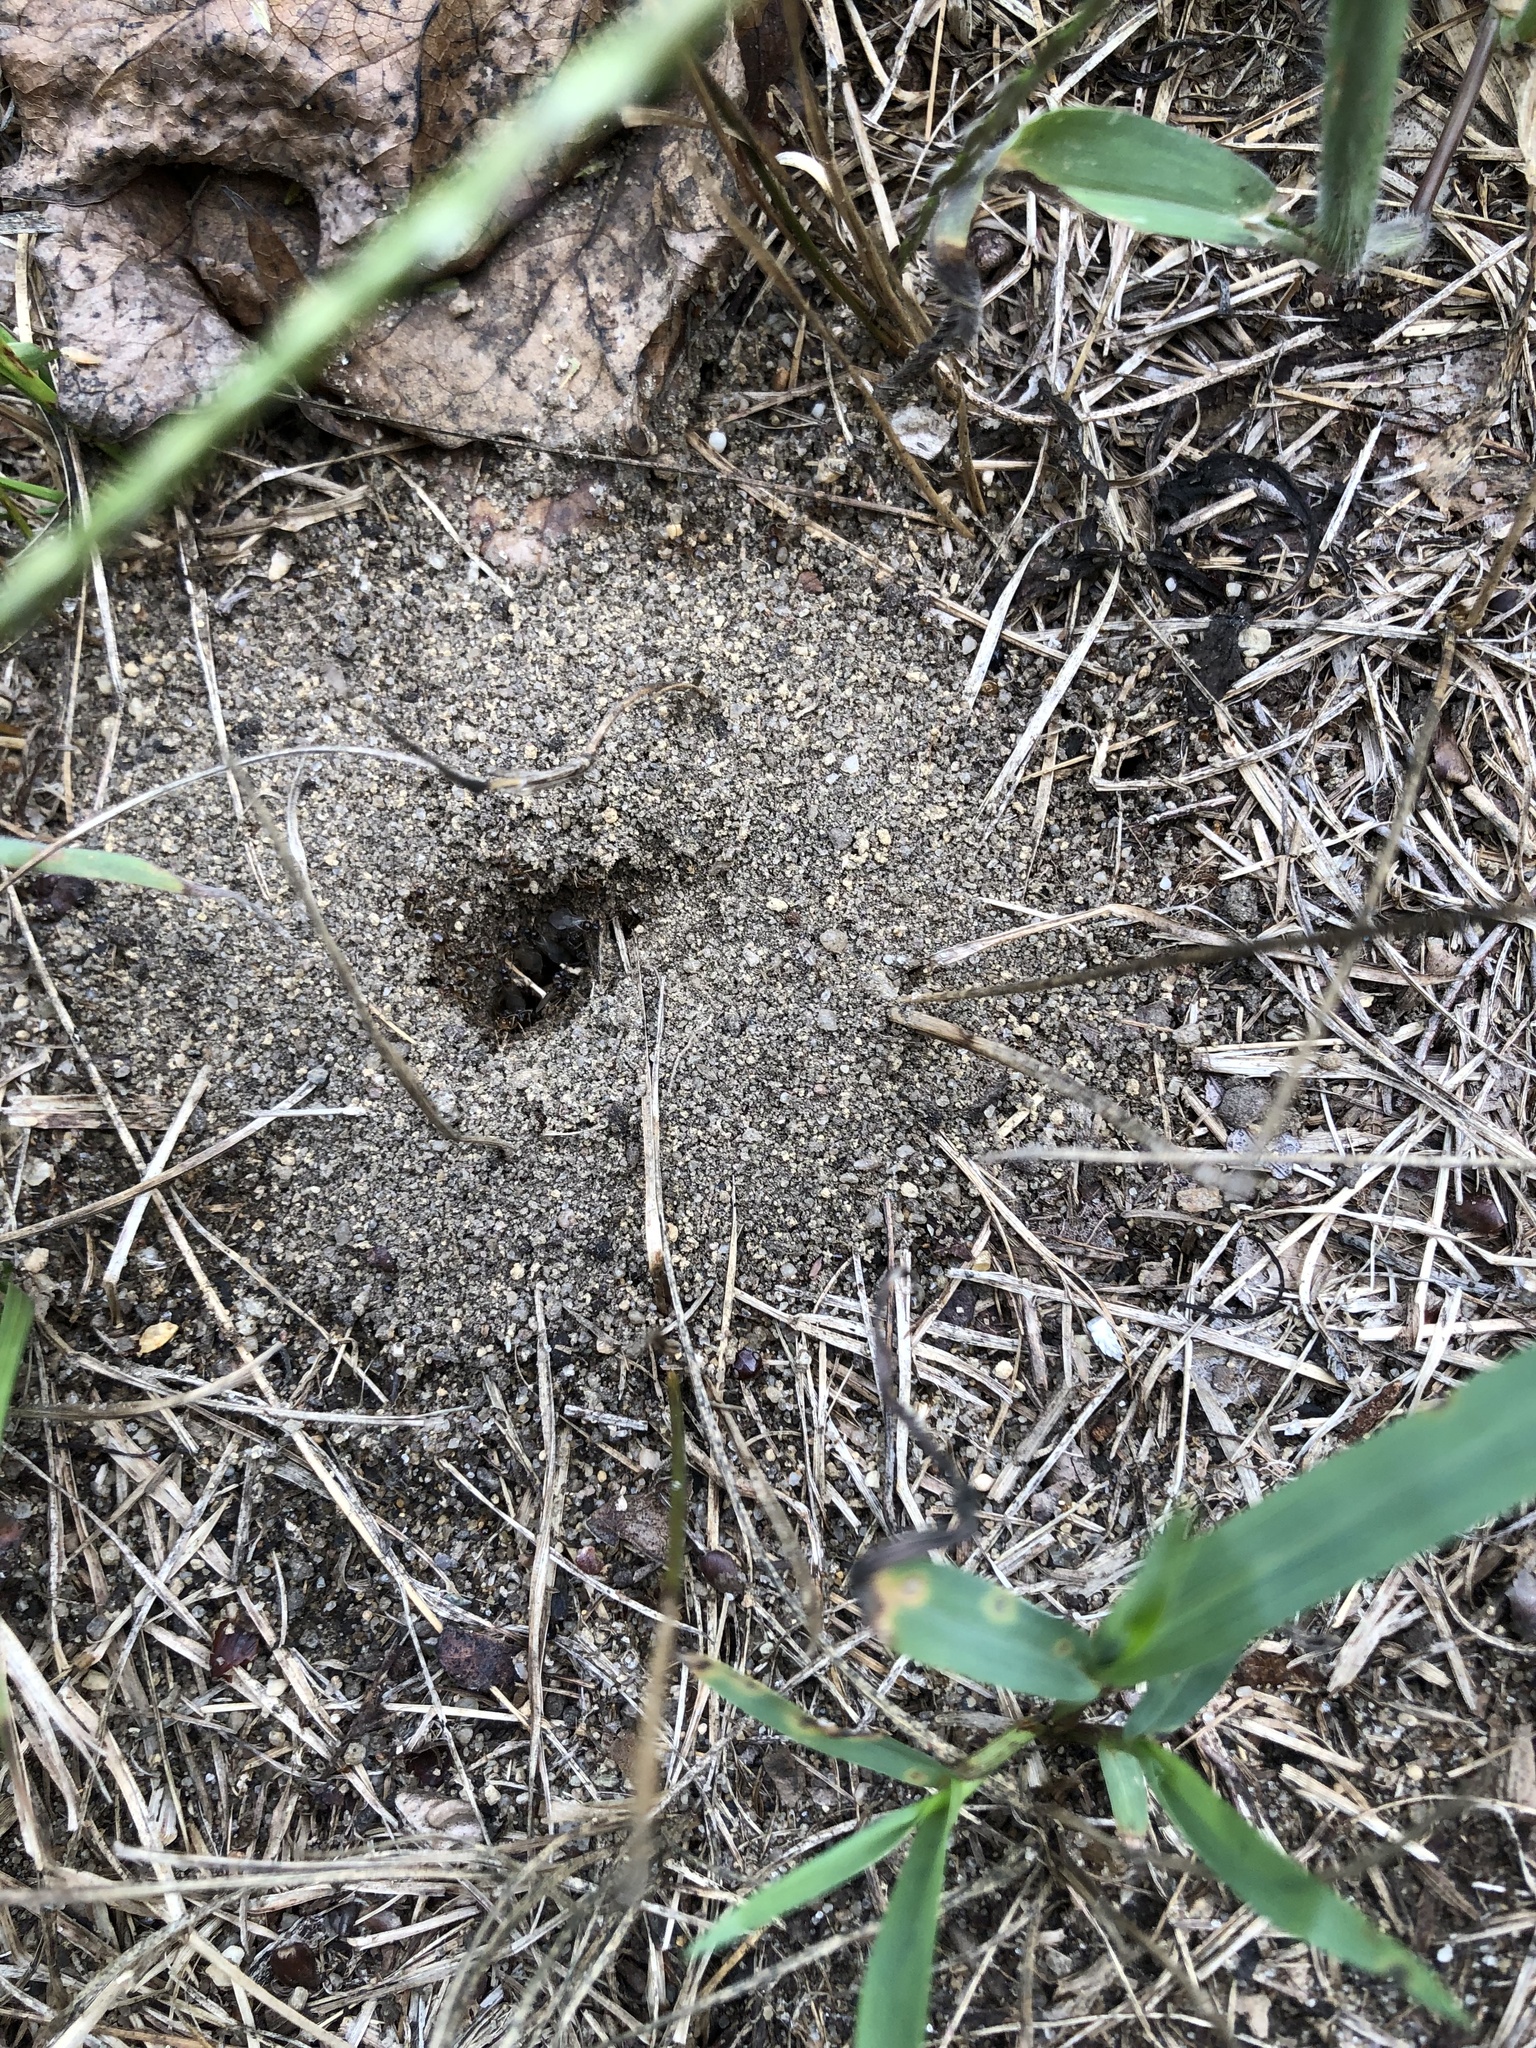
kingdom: Animalia
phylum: Arthropoda
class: Insecta
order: Hymenoptera
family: Formicidae
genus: Lasius
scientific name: Lasius neoniger
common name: Turfgrass ant
